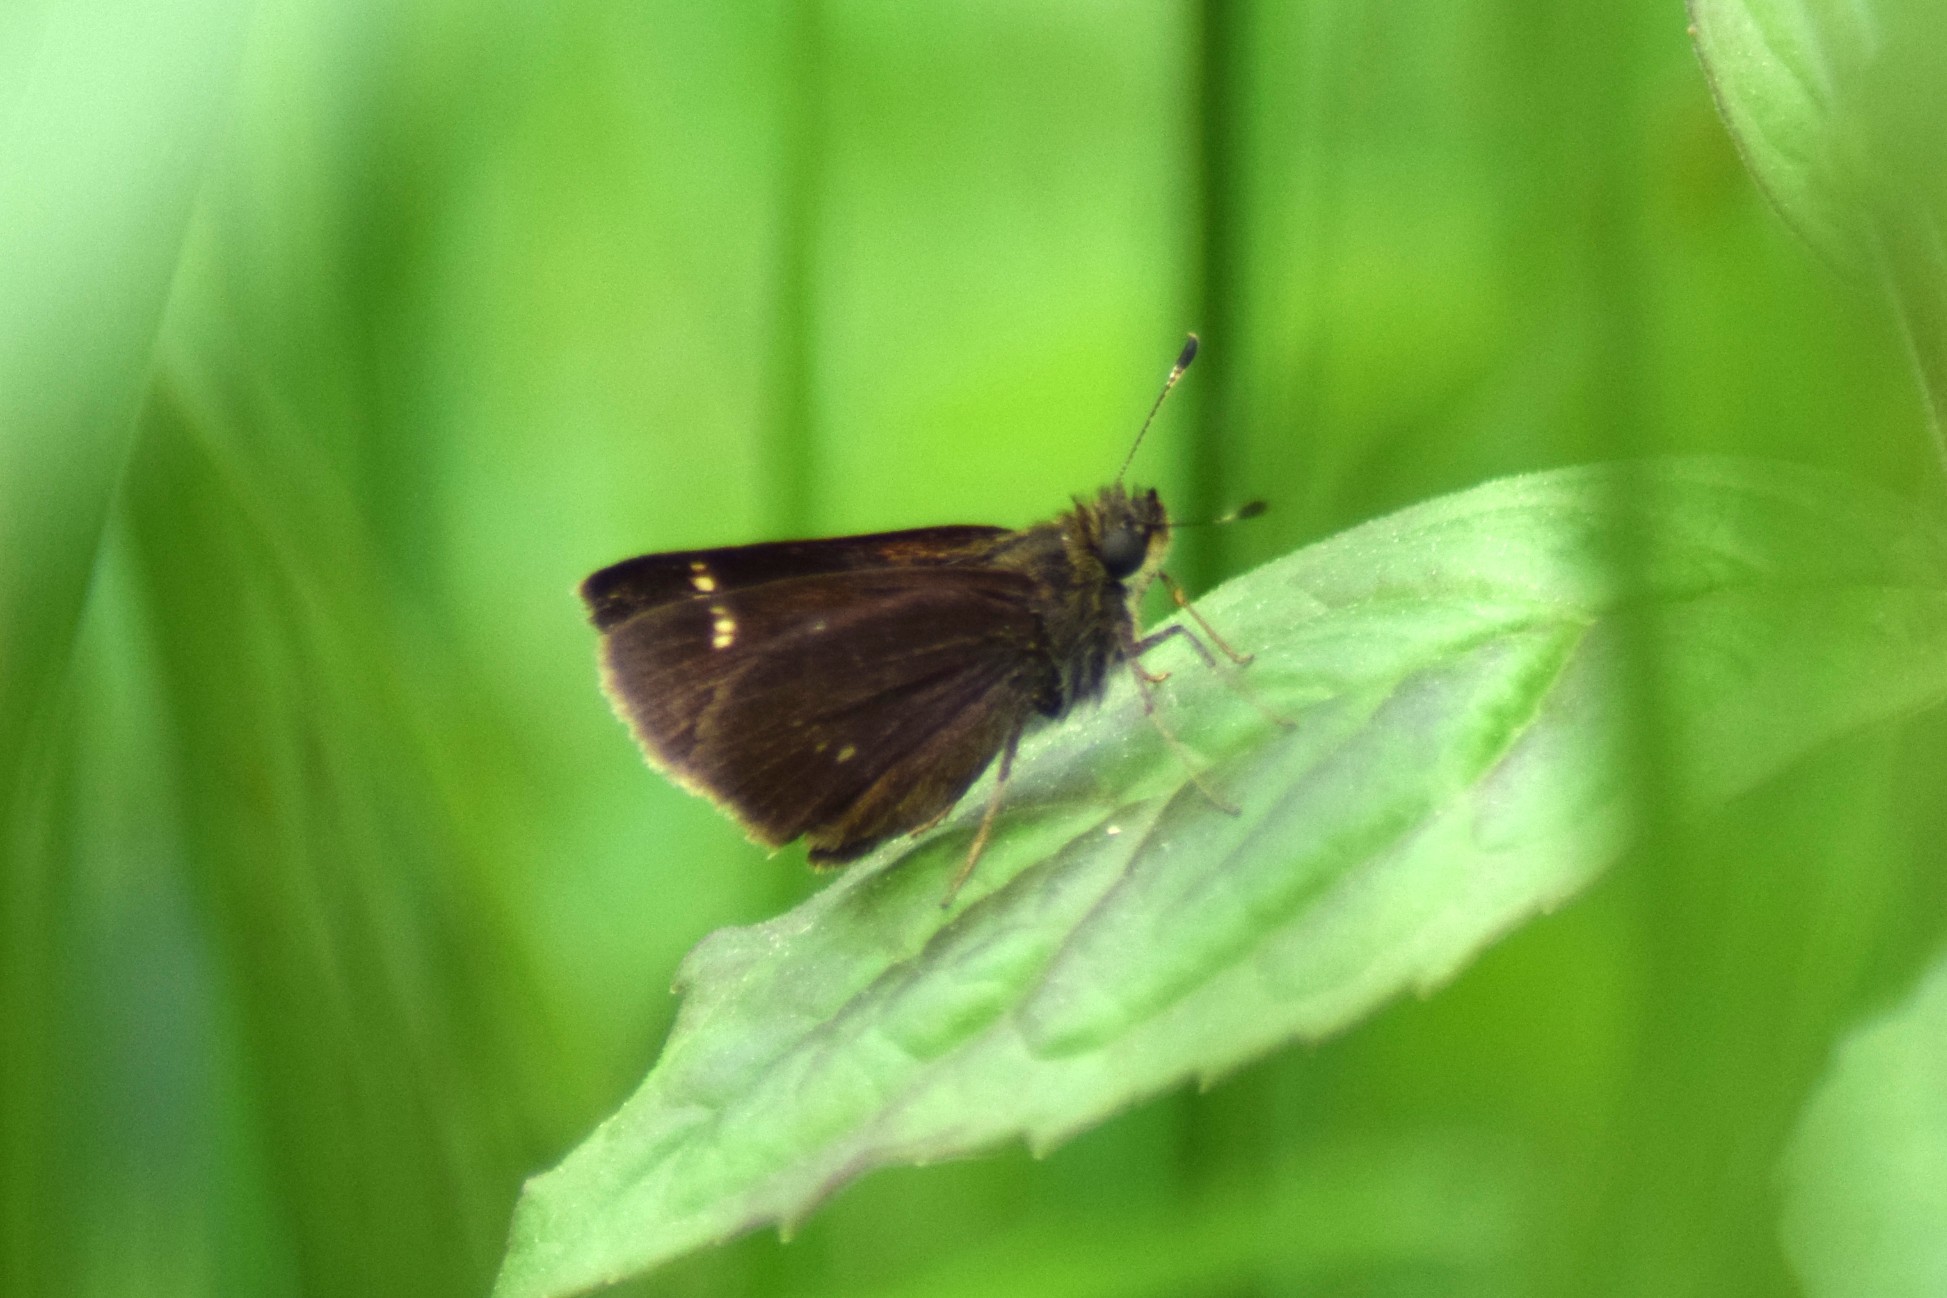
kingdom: Animalia
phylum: Arthropoda
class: Insecta
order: Lepidoptera
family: Hesperiidae
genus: Vernia
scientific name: Vernia verna
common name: Little glassywing
